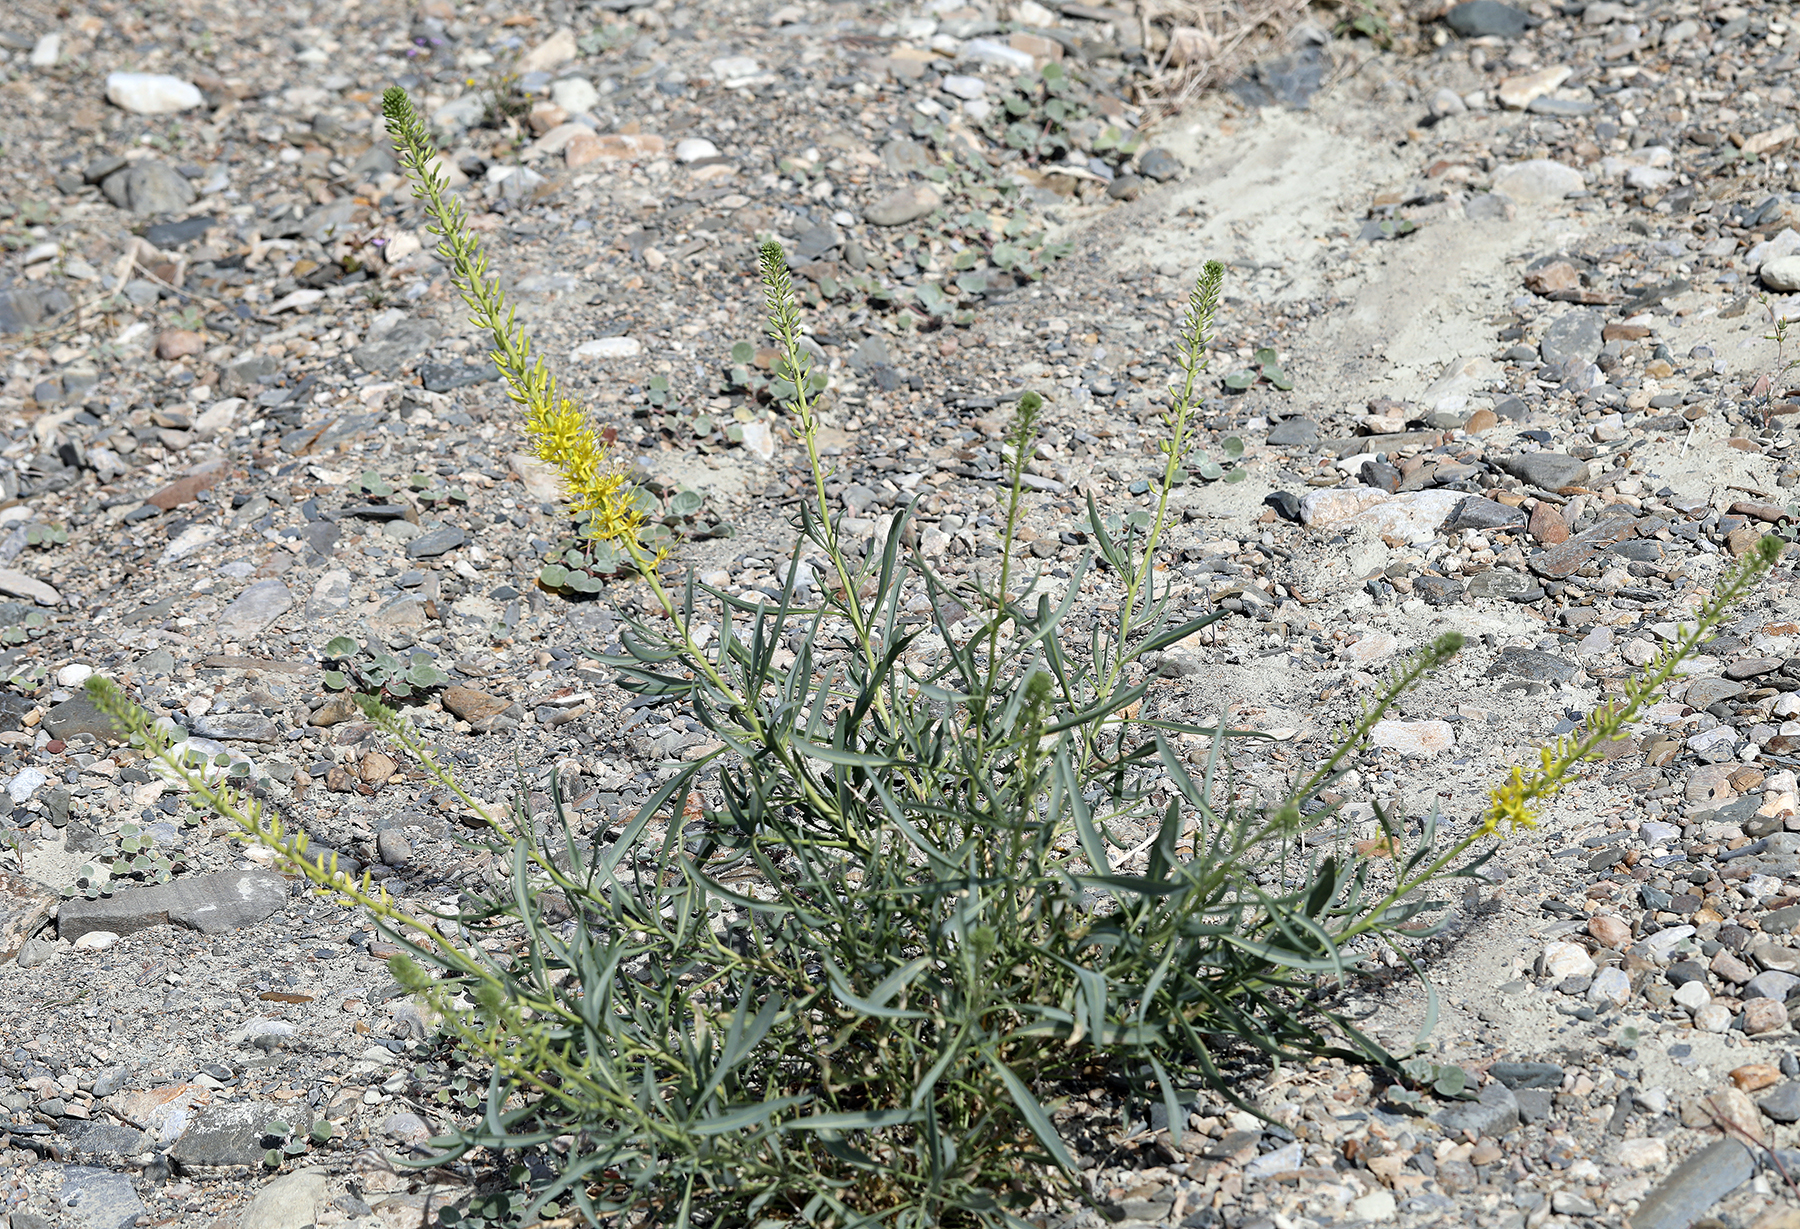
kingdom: Plantae
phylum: Tracheophyta
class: Magnoliopsida
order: Brassicales
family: Brassicaceae
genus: Stanleya
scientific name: Stanleya pinnata
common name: Prince's-plume
